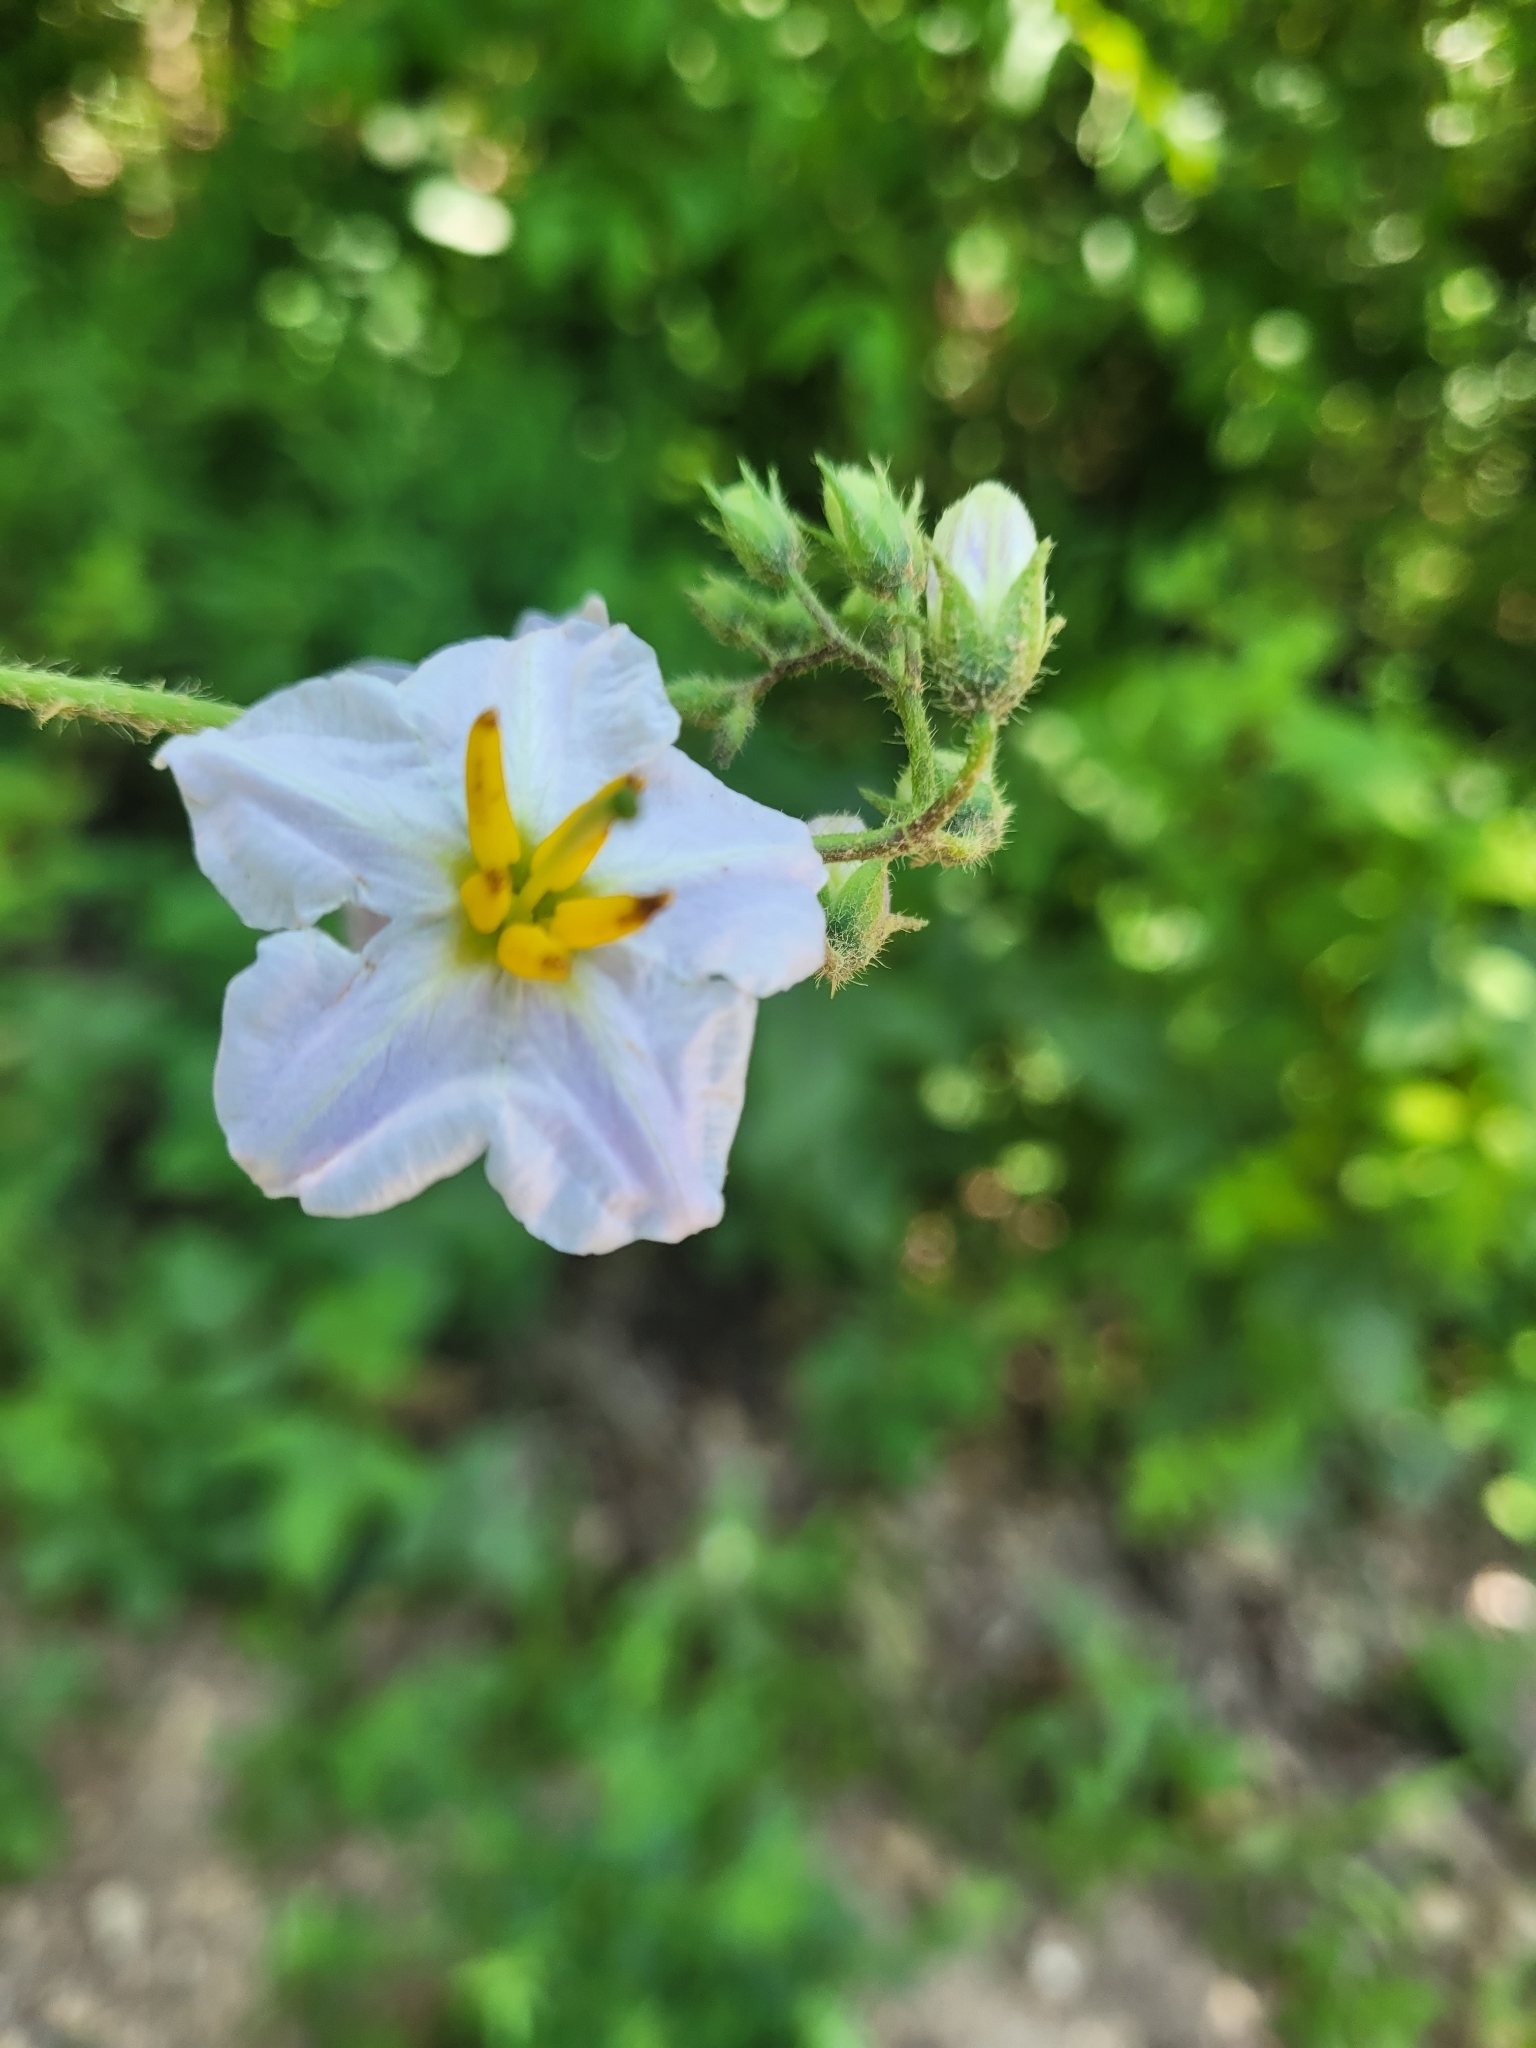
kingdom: Plantae
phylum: Tracheophyta
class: Magnoliopsida
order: Solanales
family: Solanaceae
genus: Solanum
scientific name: Solanum carolinense
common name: Horse-nettle
